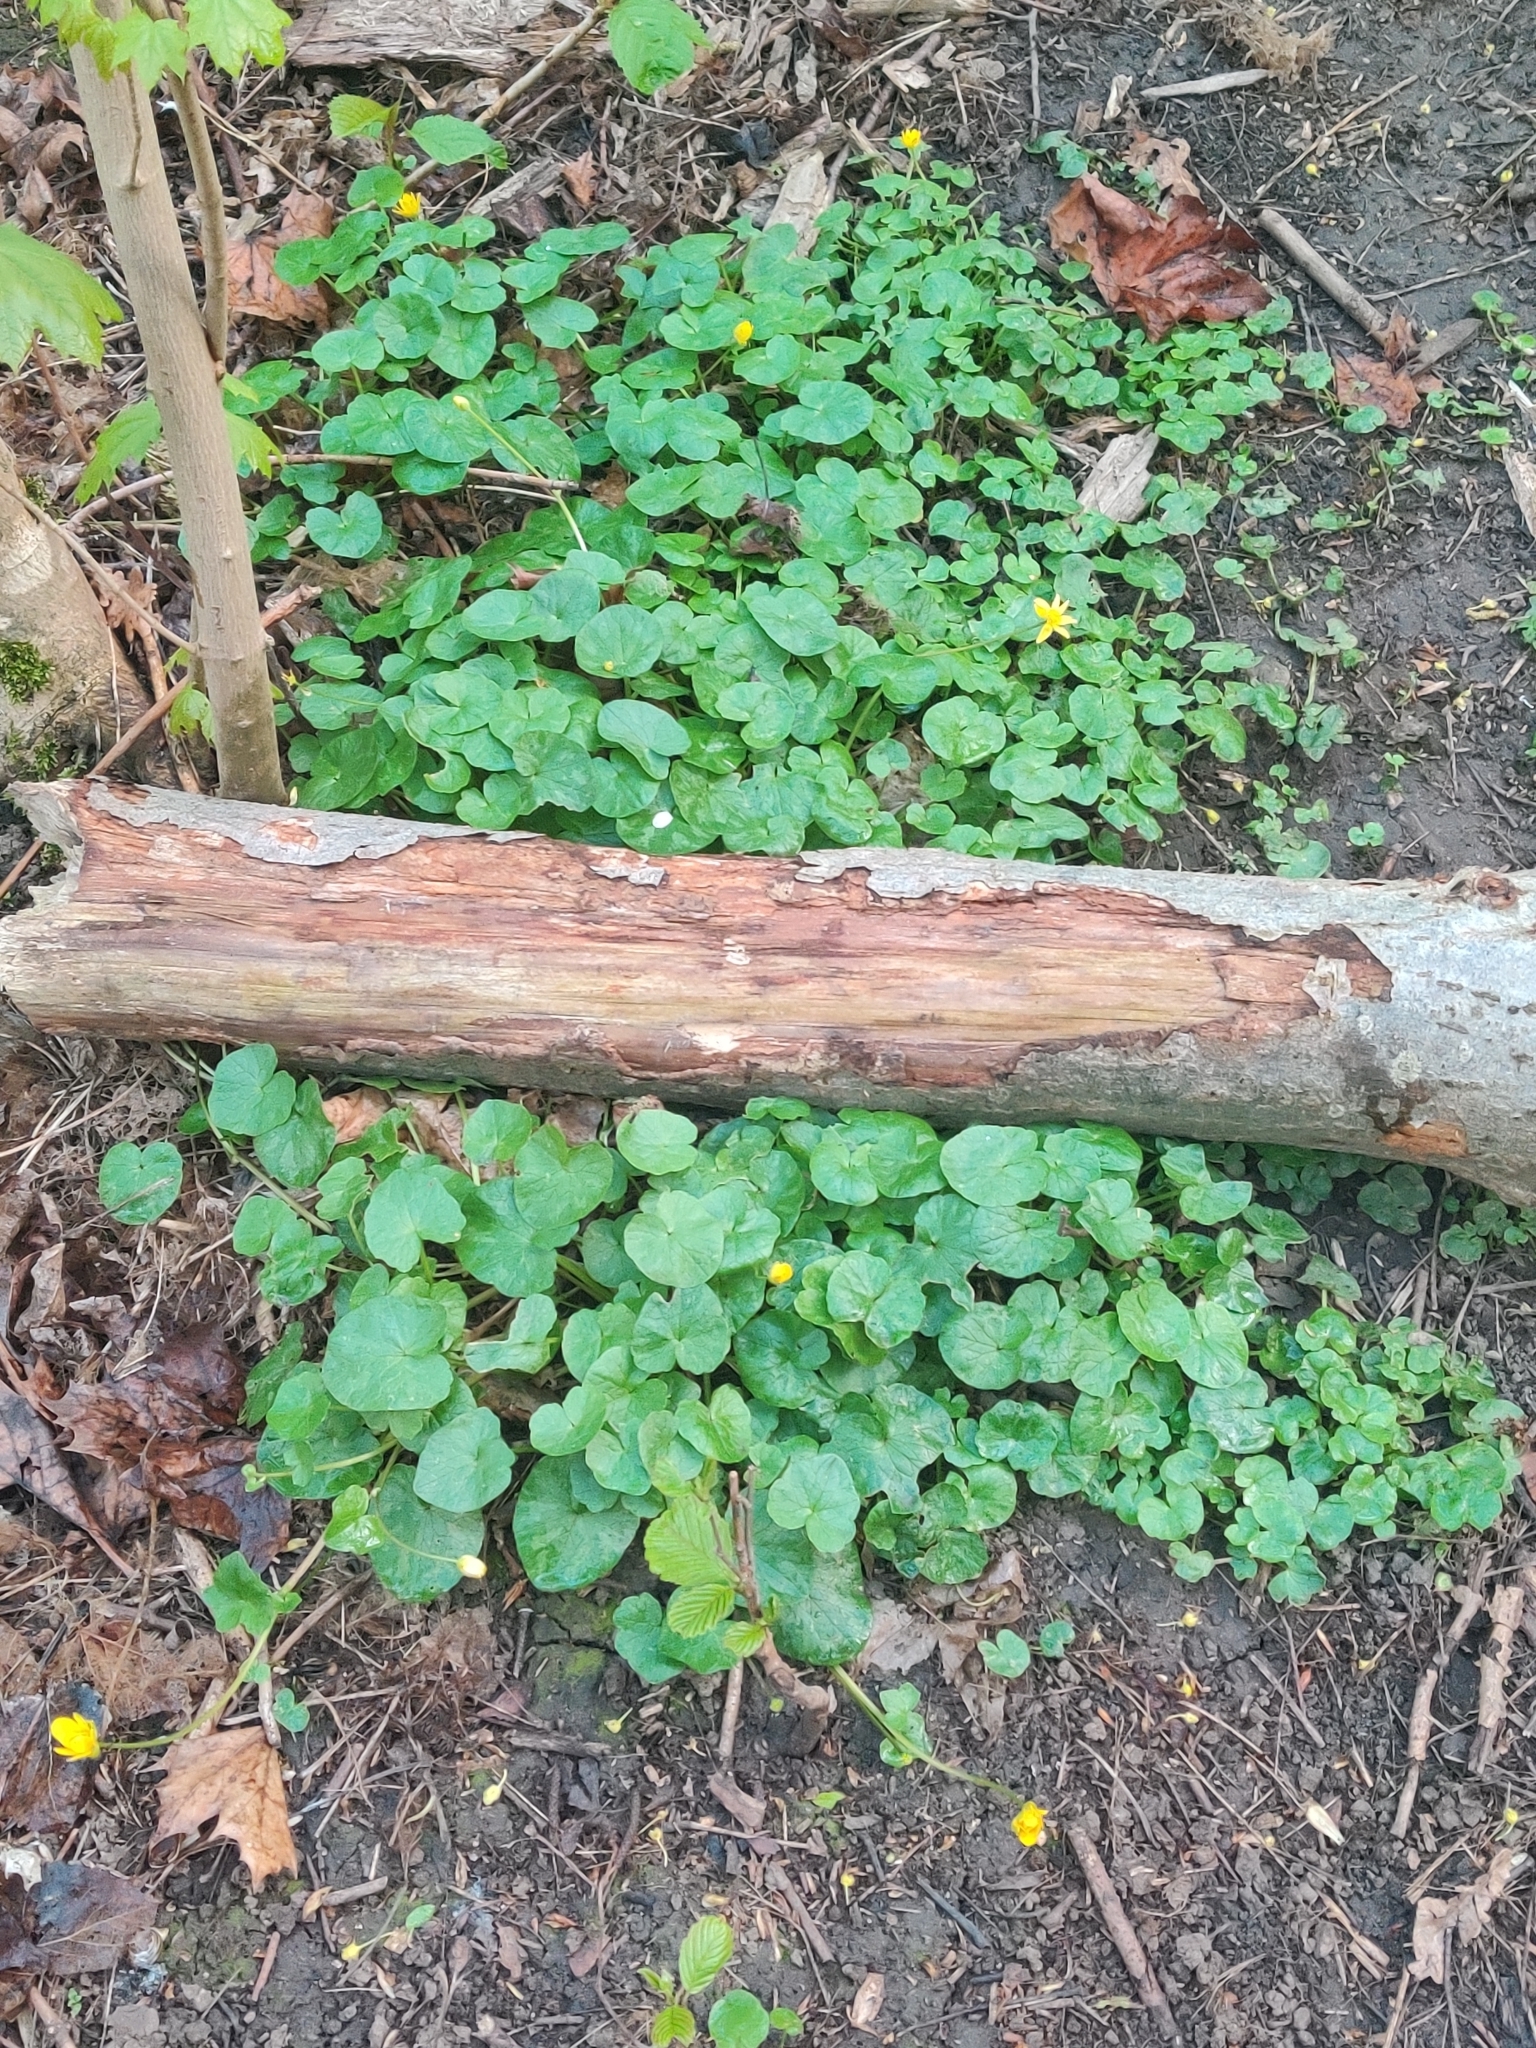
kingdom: Plantae
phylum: Tracheophyta
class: Magnoliopsida
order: Ranunculales
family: Ranunculaceae
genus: Ficaria
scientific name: Ficaria verna
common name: Lesser celandine
